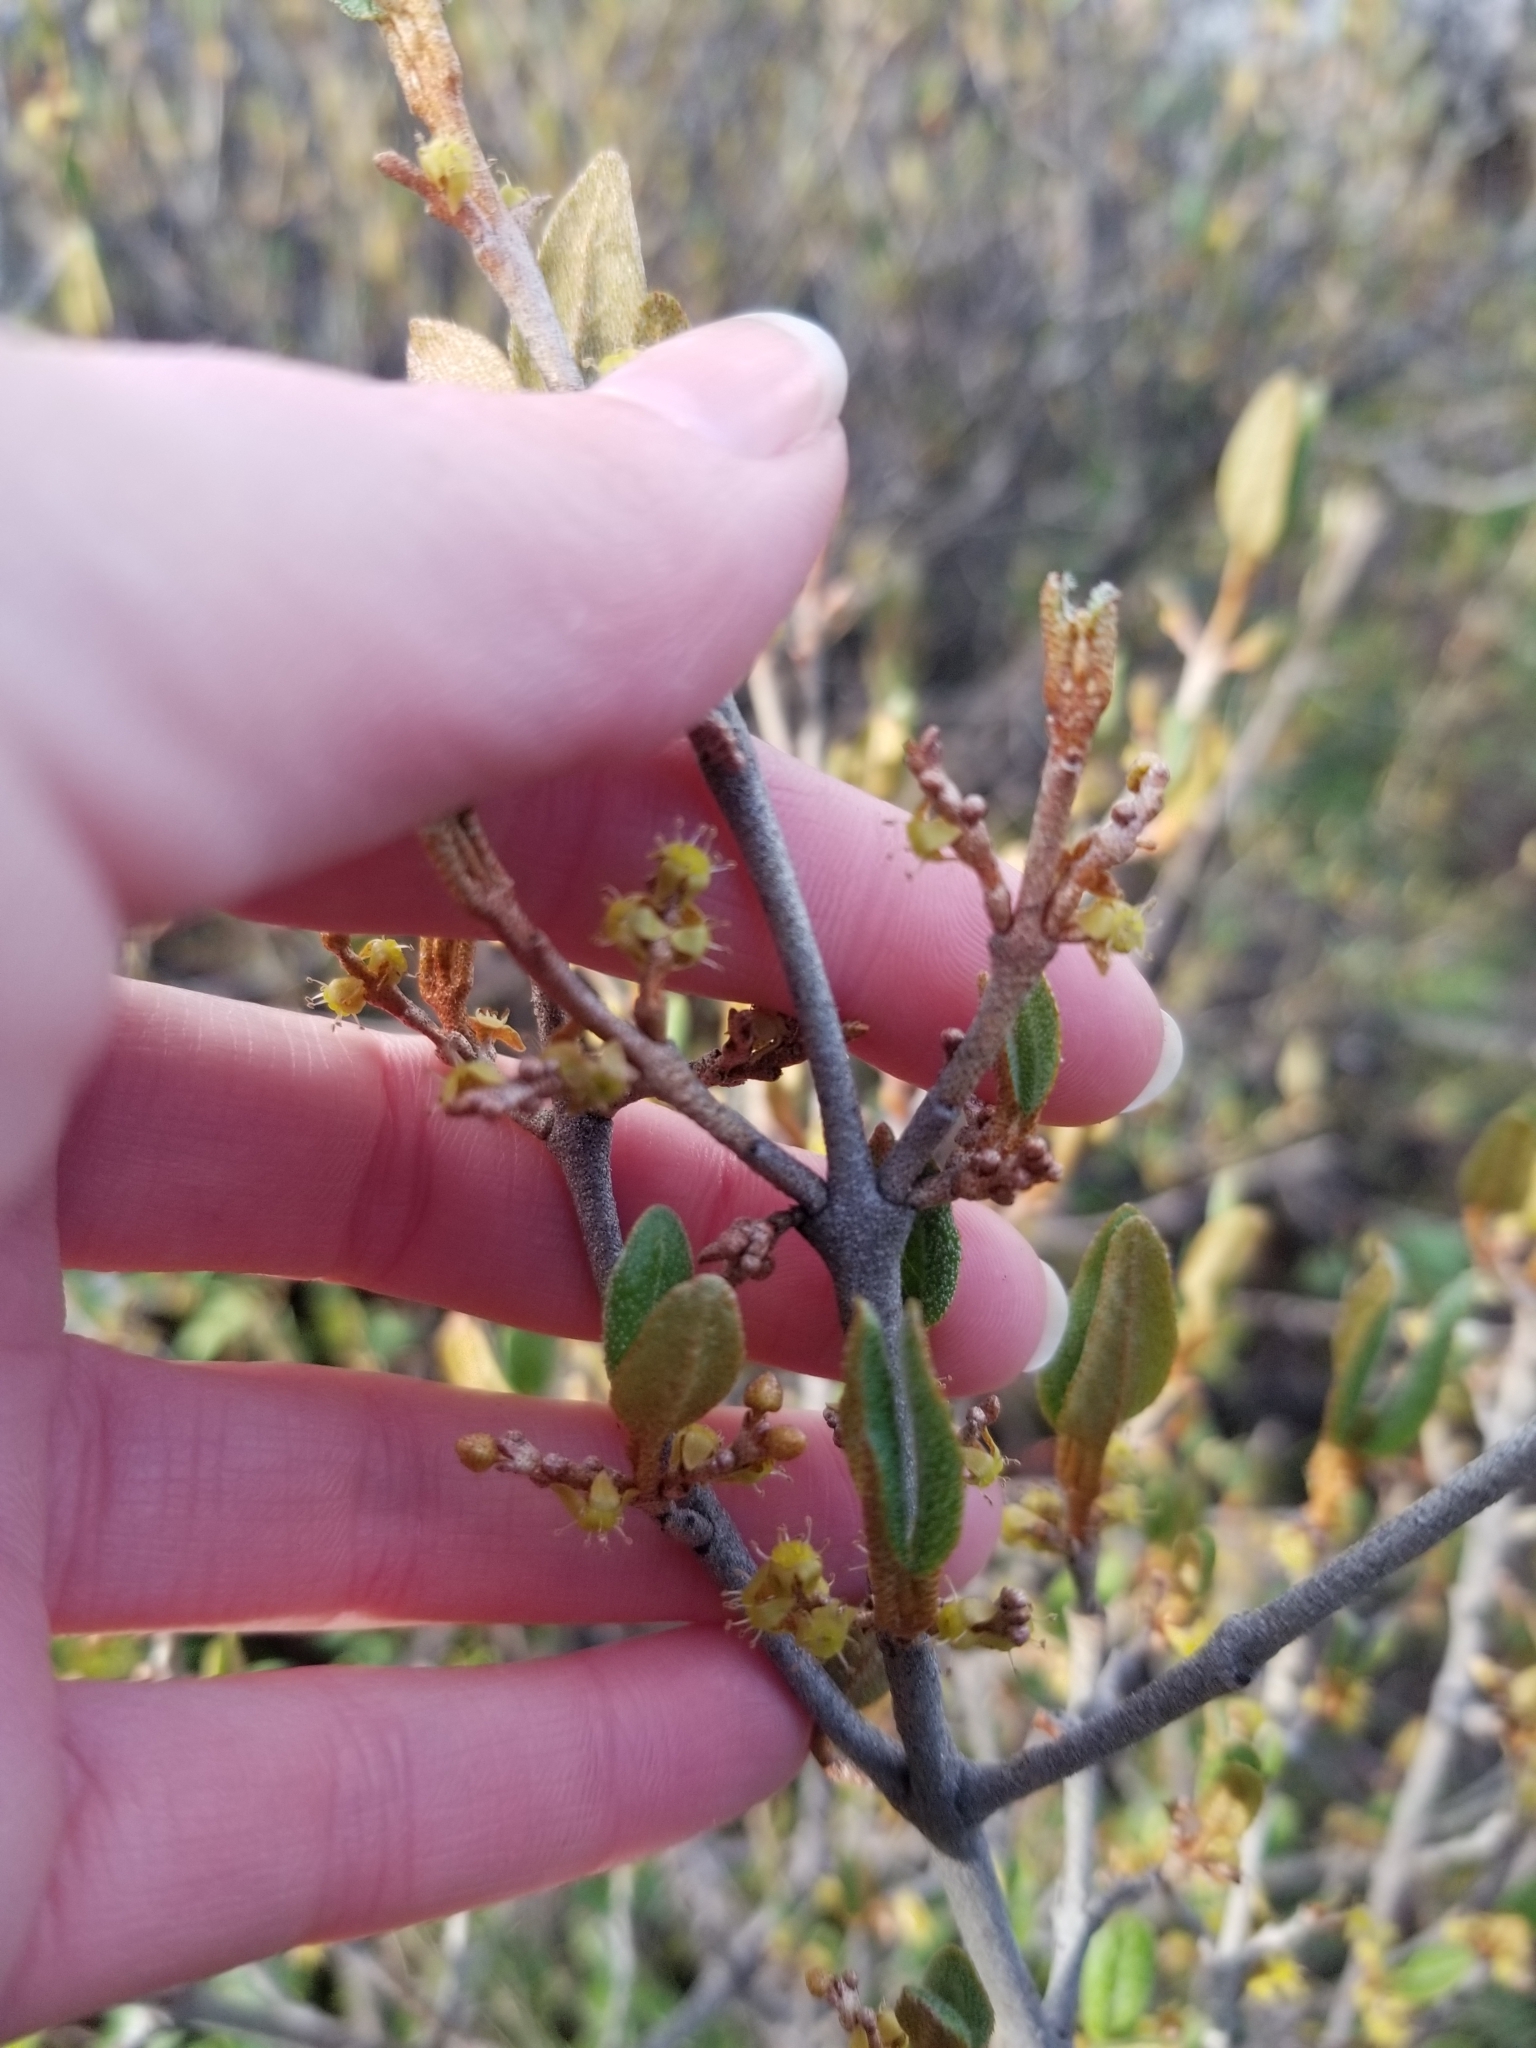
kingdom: Plantae
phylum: Tracheophyta
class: Magnoliopsida
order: Rosales
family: Elaeagnaceae
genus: Shepherdia
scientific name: Shepherdia canadensis
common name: Soapberry
